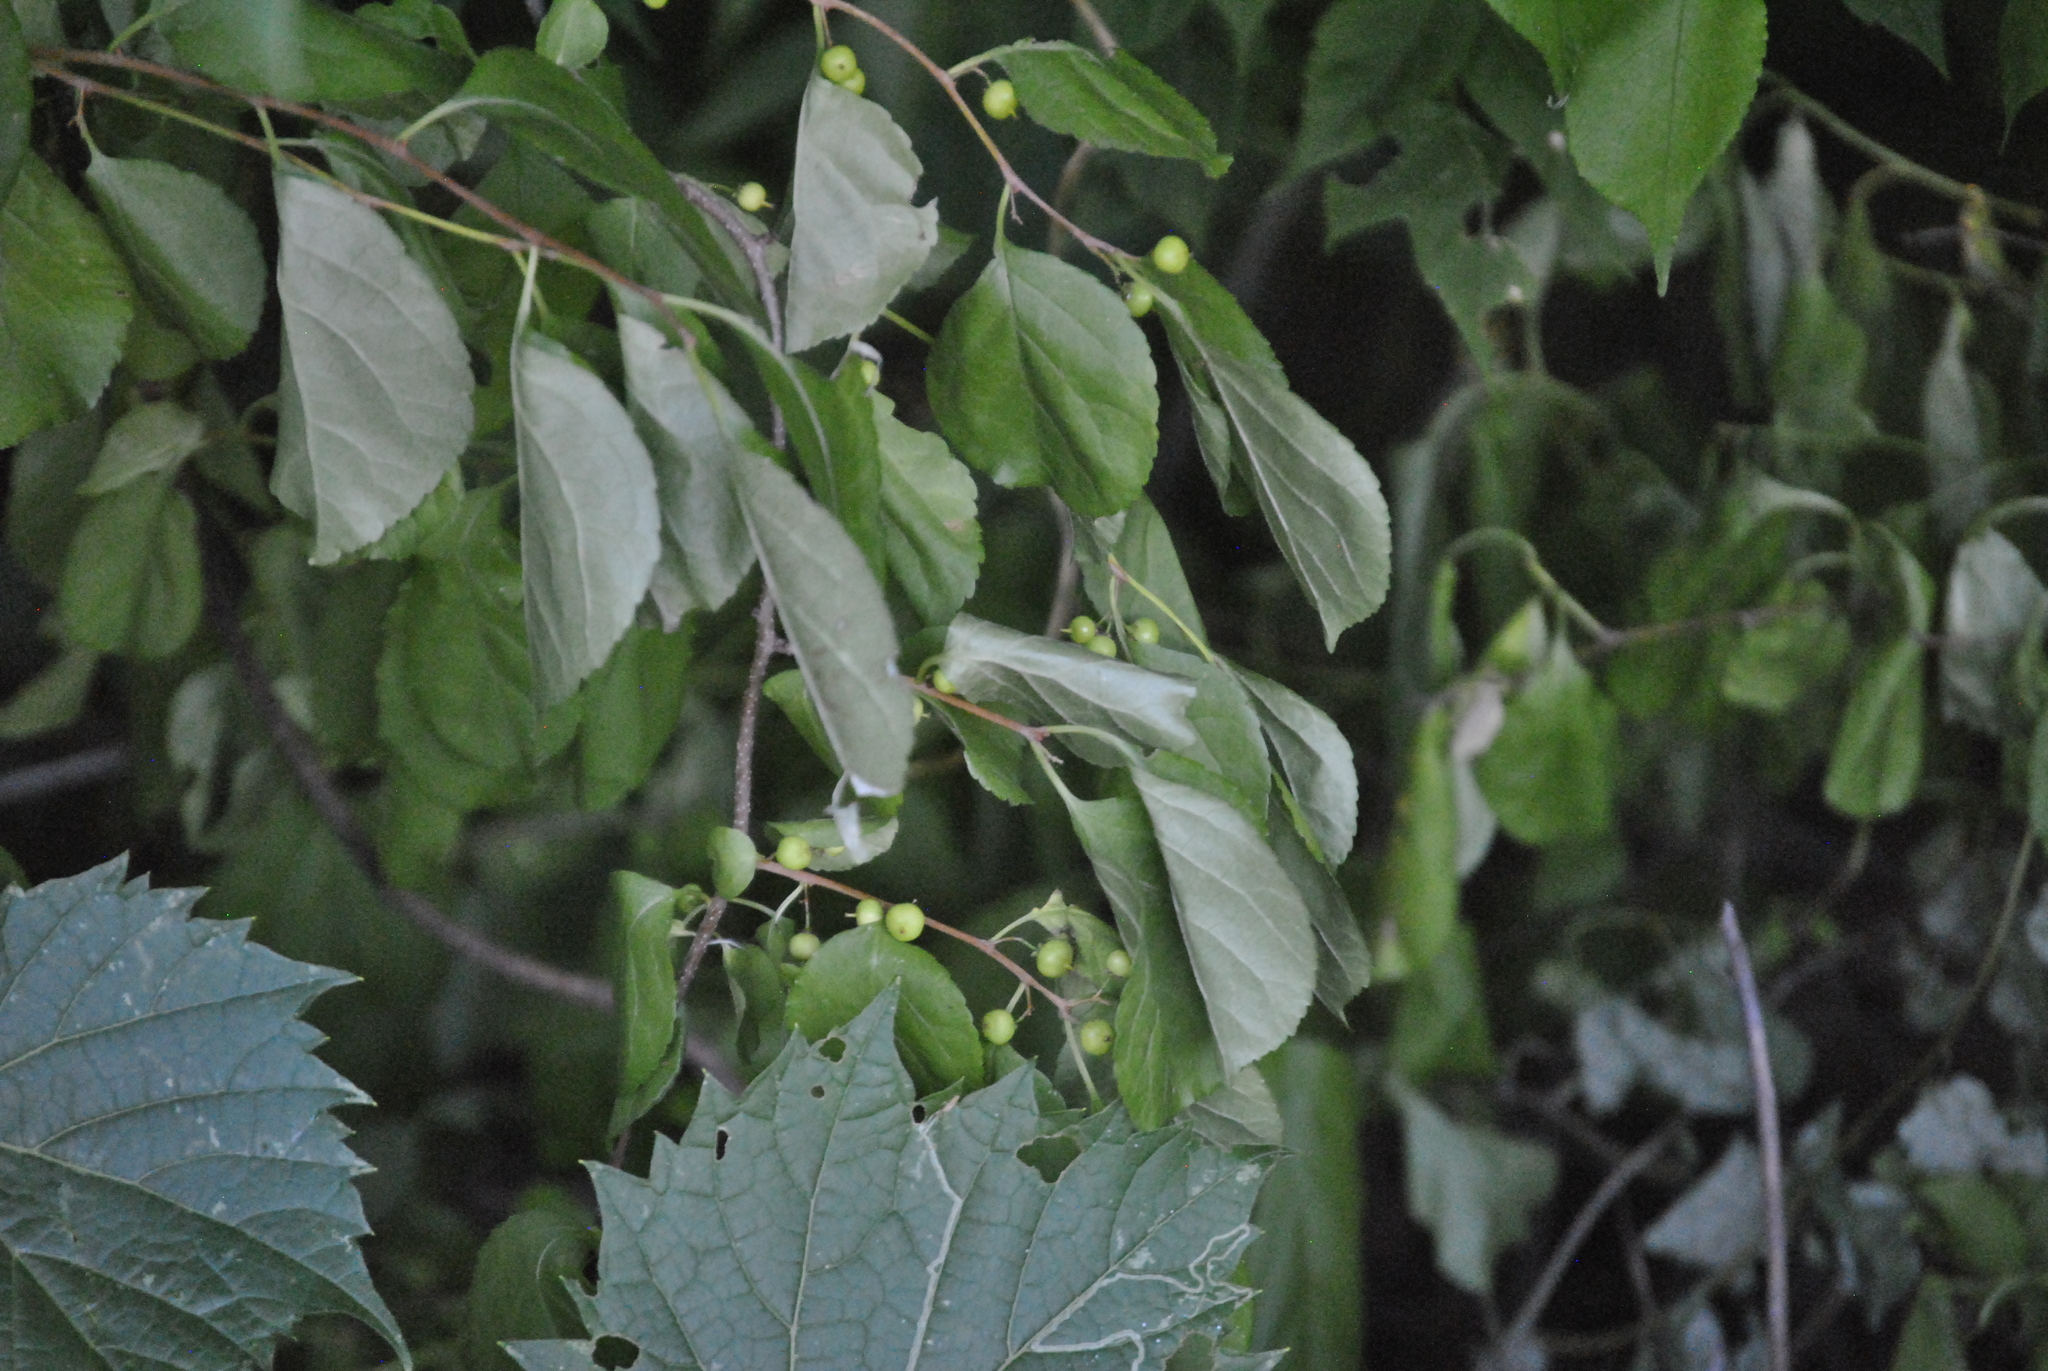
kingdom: Plantae
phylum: Tracheophyta
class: Magnoliopsida
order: Celastrales
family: Celastraceae
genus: Celastrus
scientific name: Celastrus orbiculatus
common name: Oriental bittersweet
